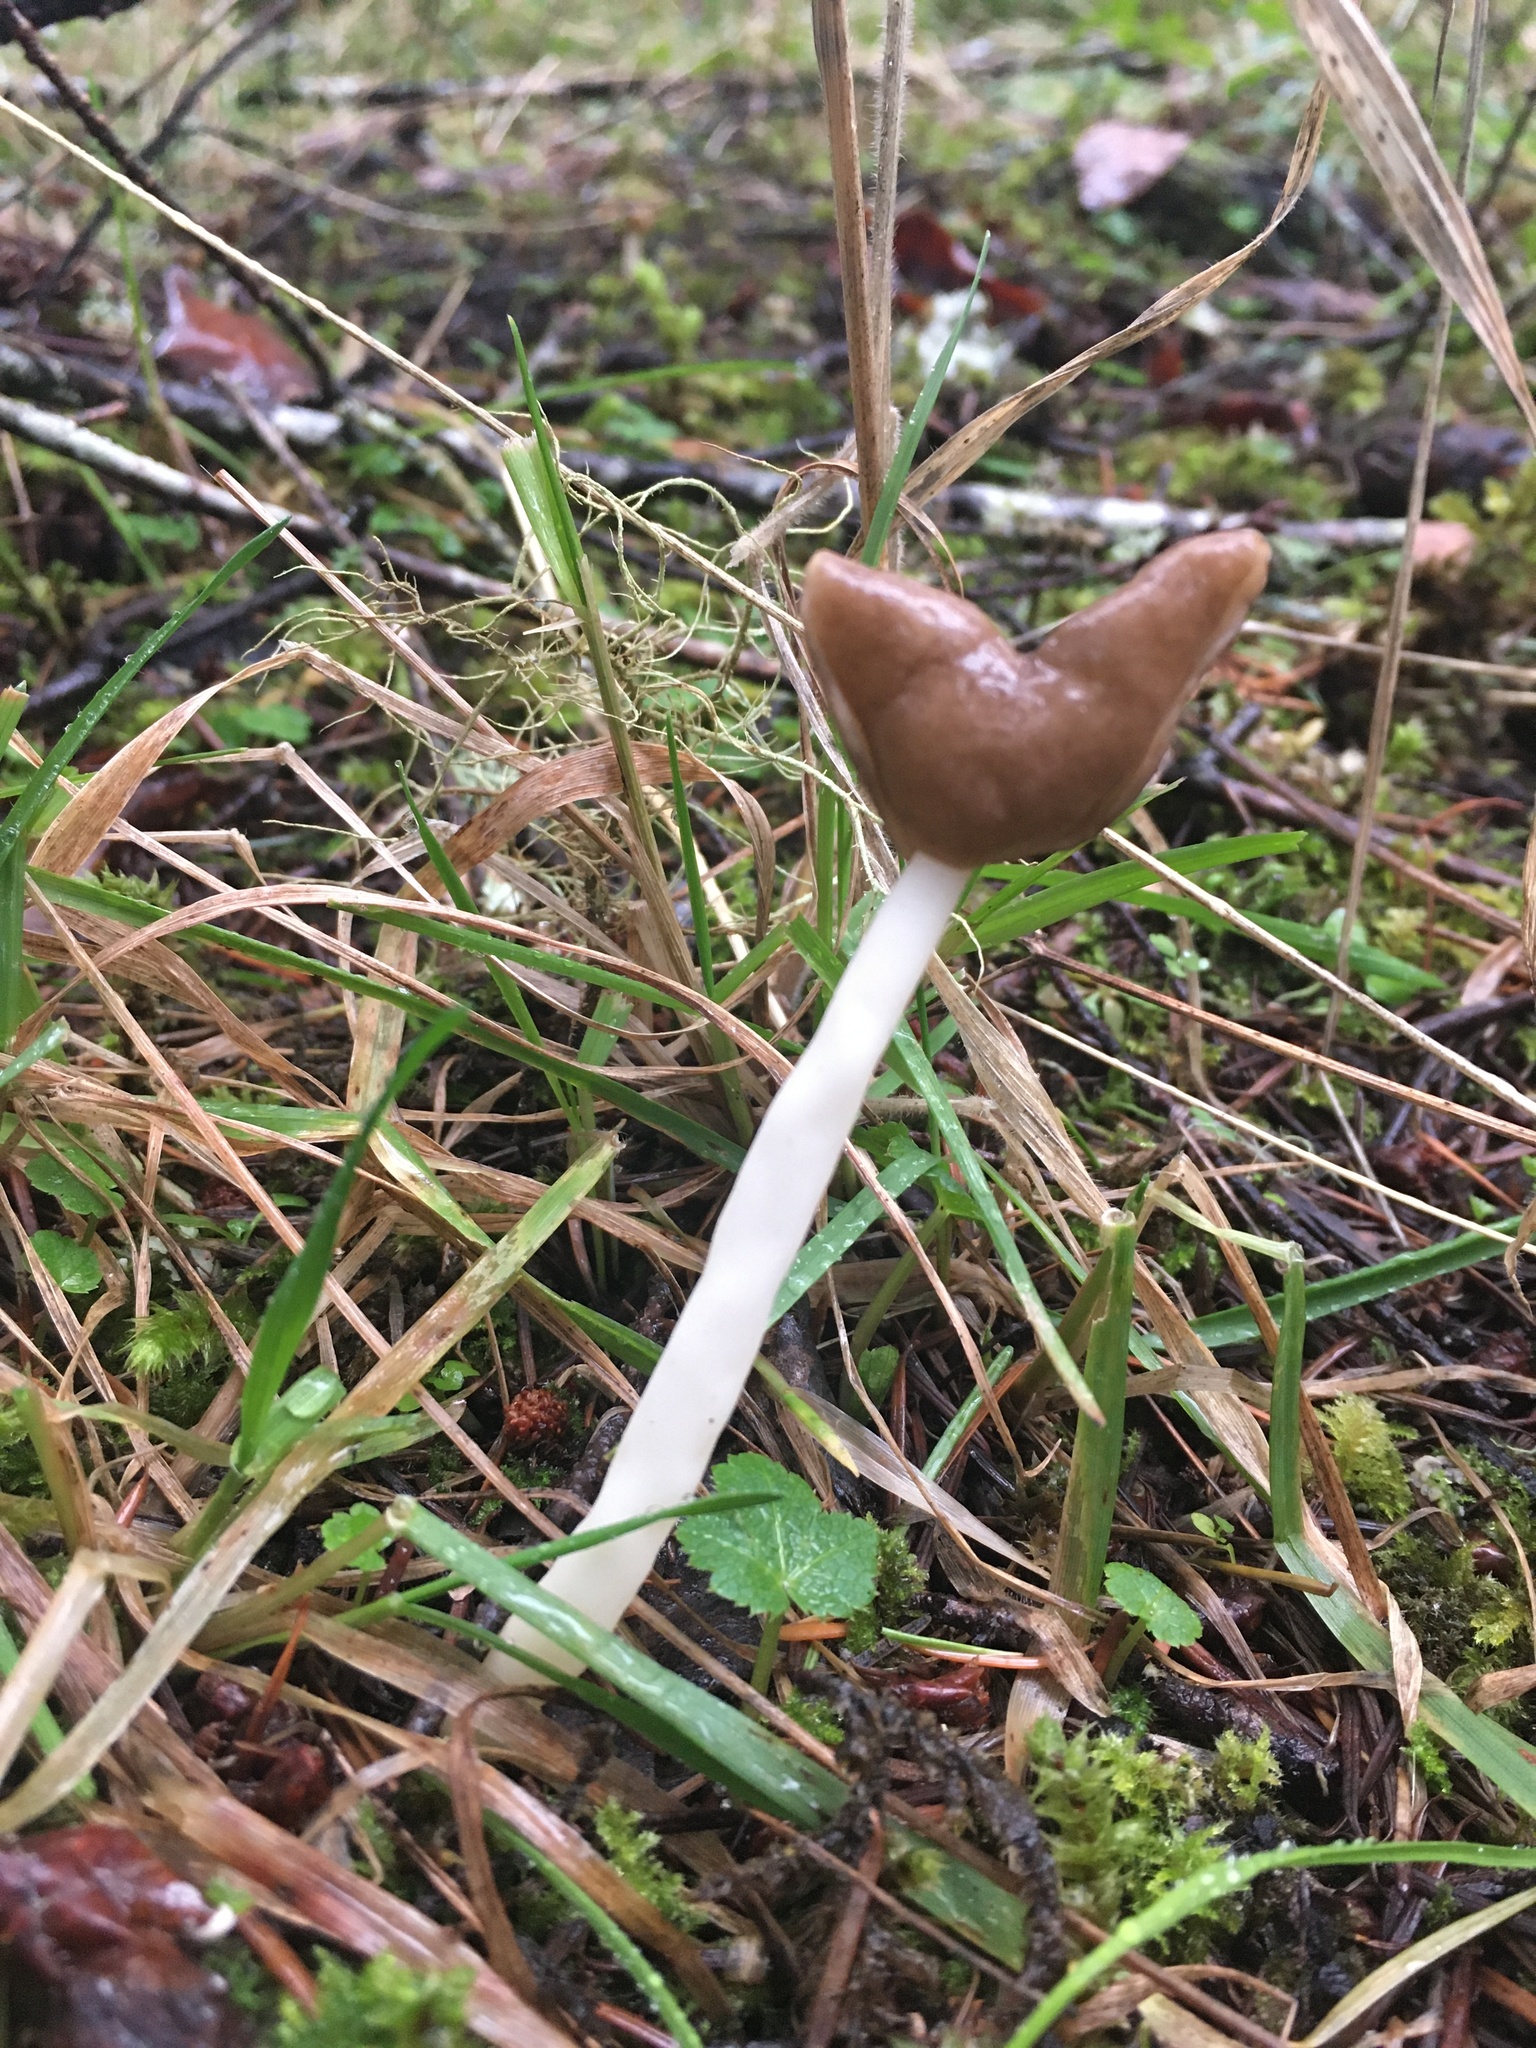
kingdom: Fungi
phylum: Ascomycota
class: Pezizomycetes
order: Pezizales
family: Helvellaceae
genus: Helvella
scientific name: Helvella compressa
